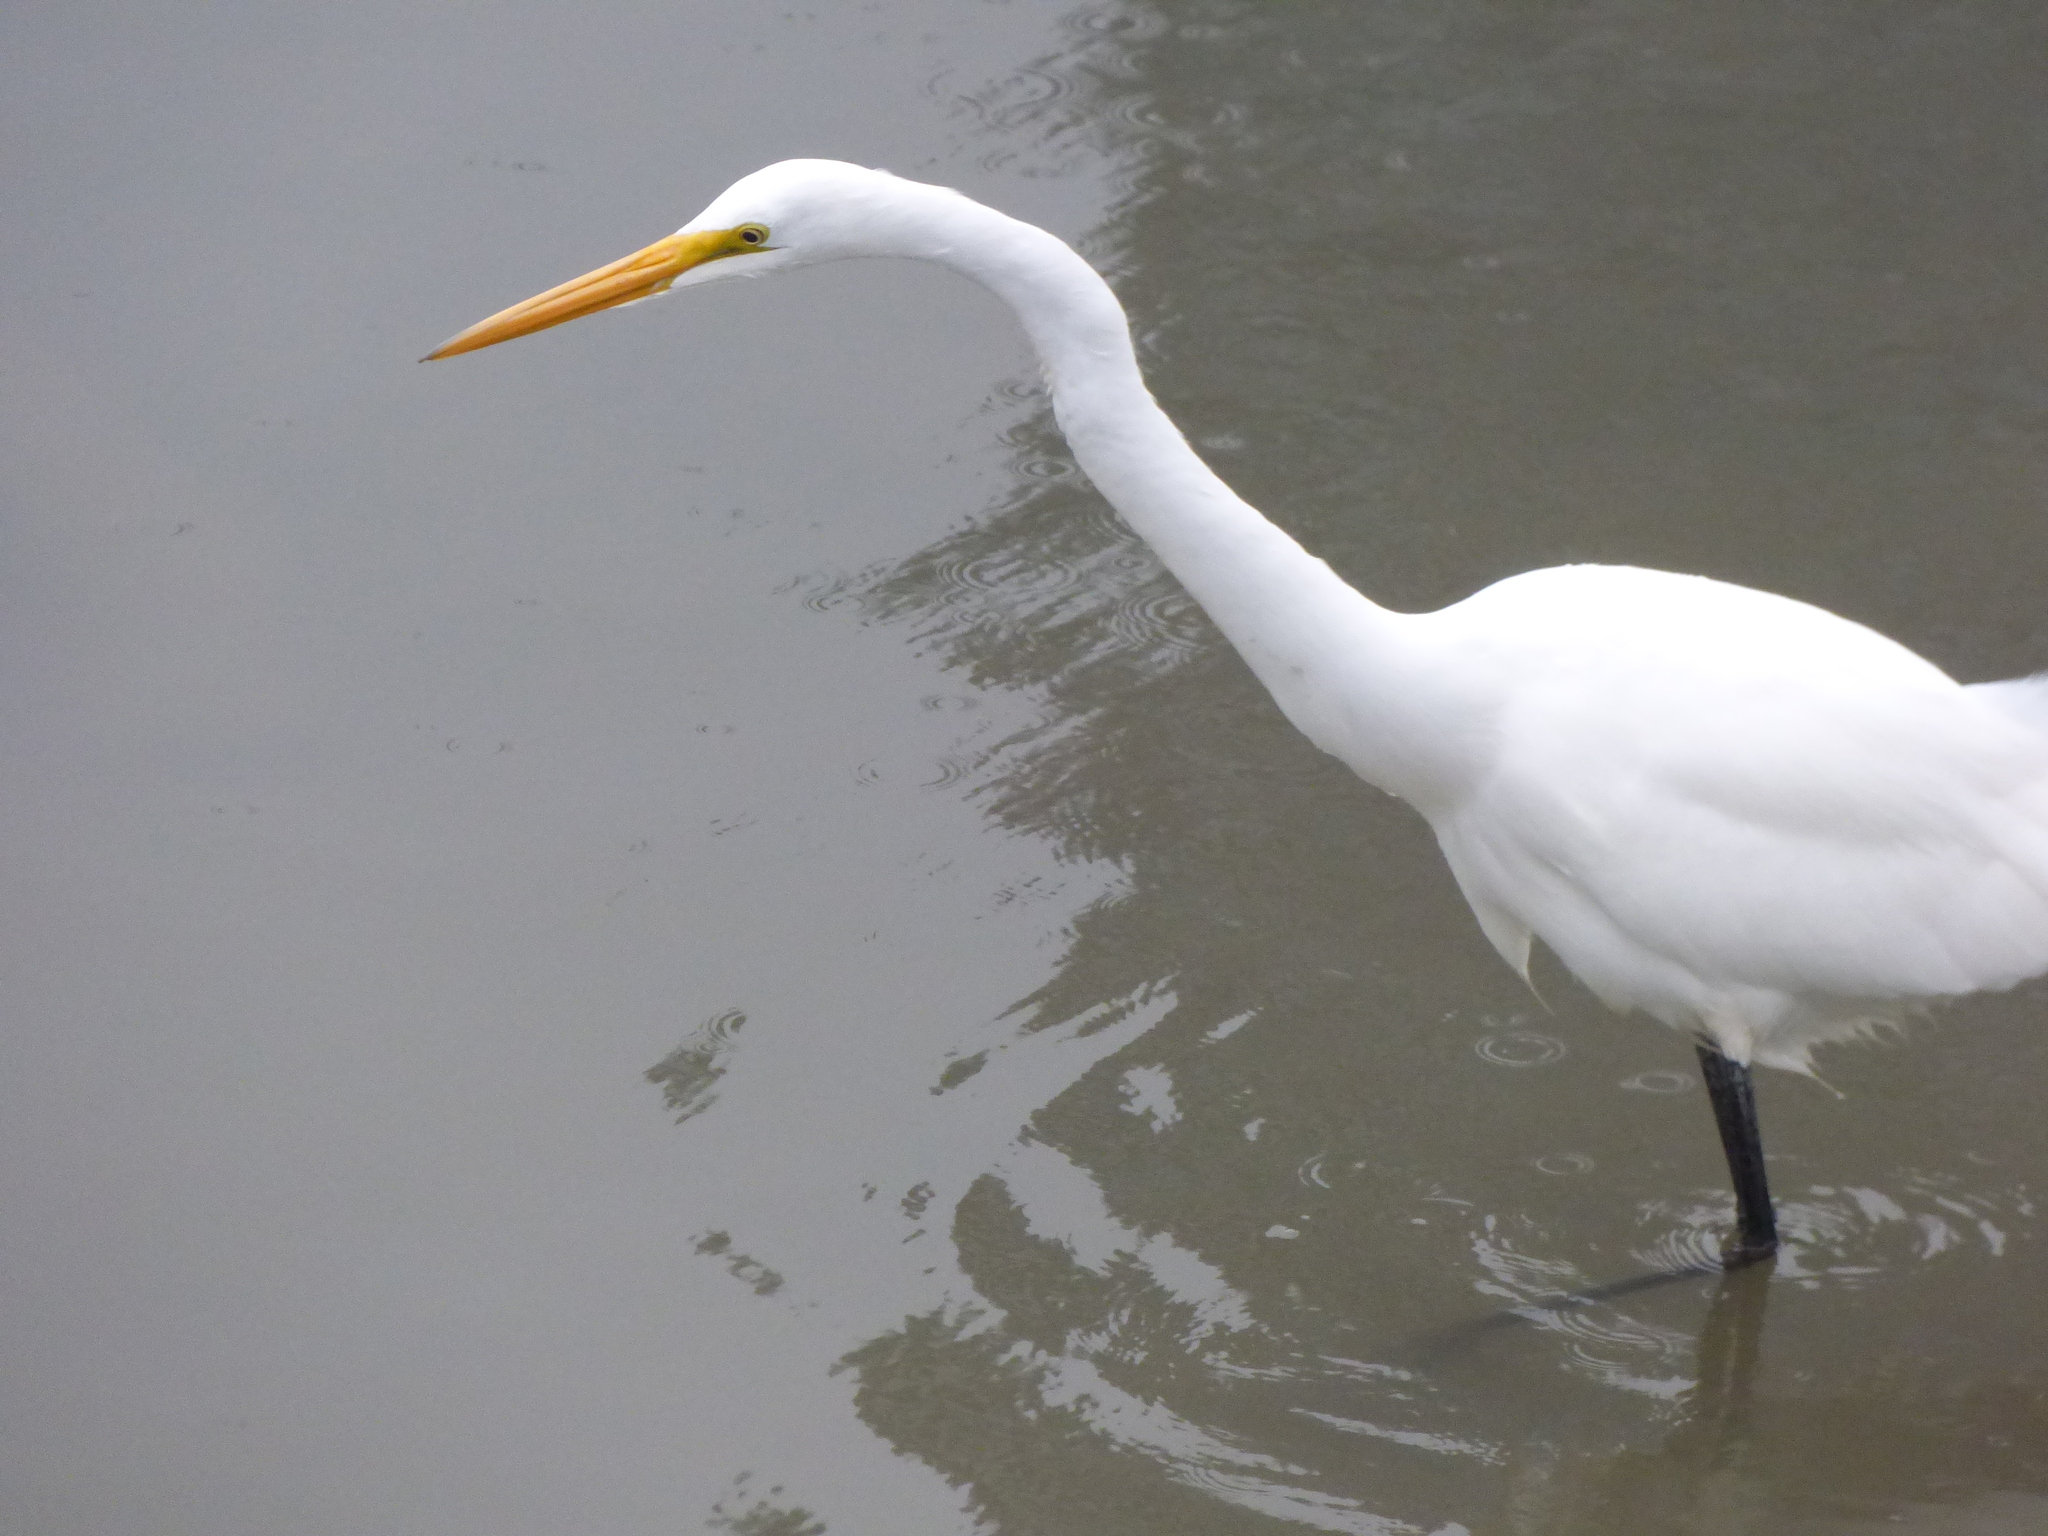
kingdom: Animalia
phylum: Chordata
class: Aves
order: Pelecaniformes
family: Ardeidae
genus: Ardea
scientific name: Ardea alba
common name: Great egret
